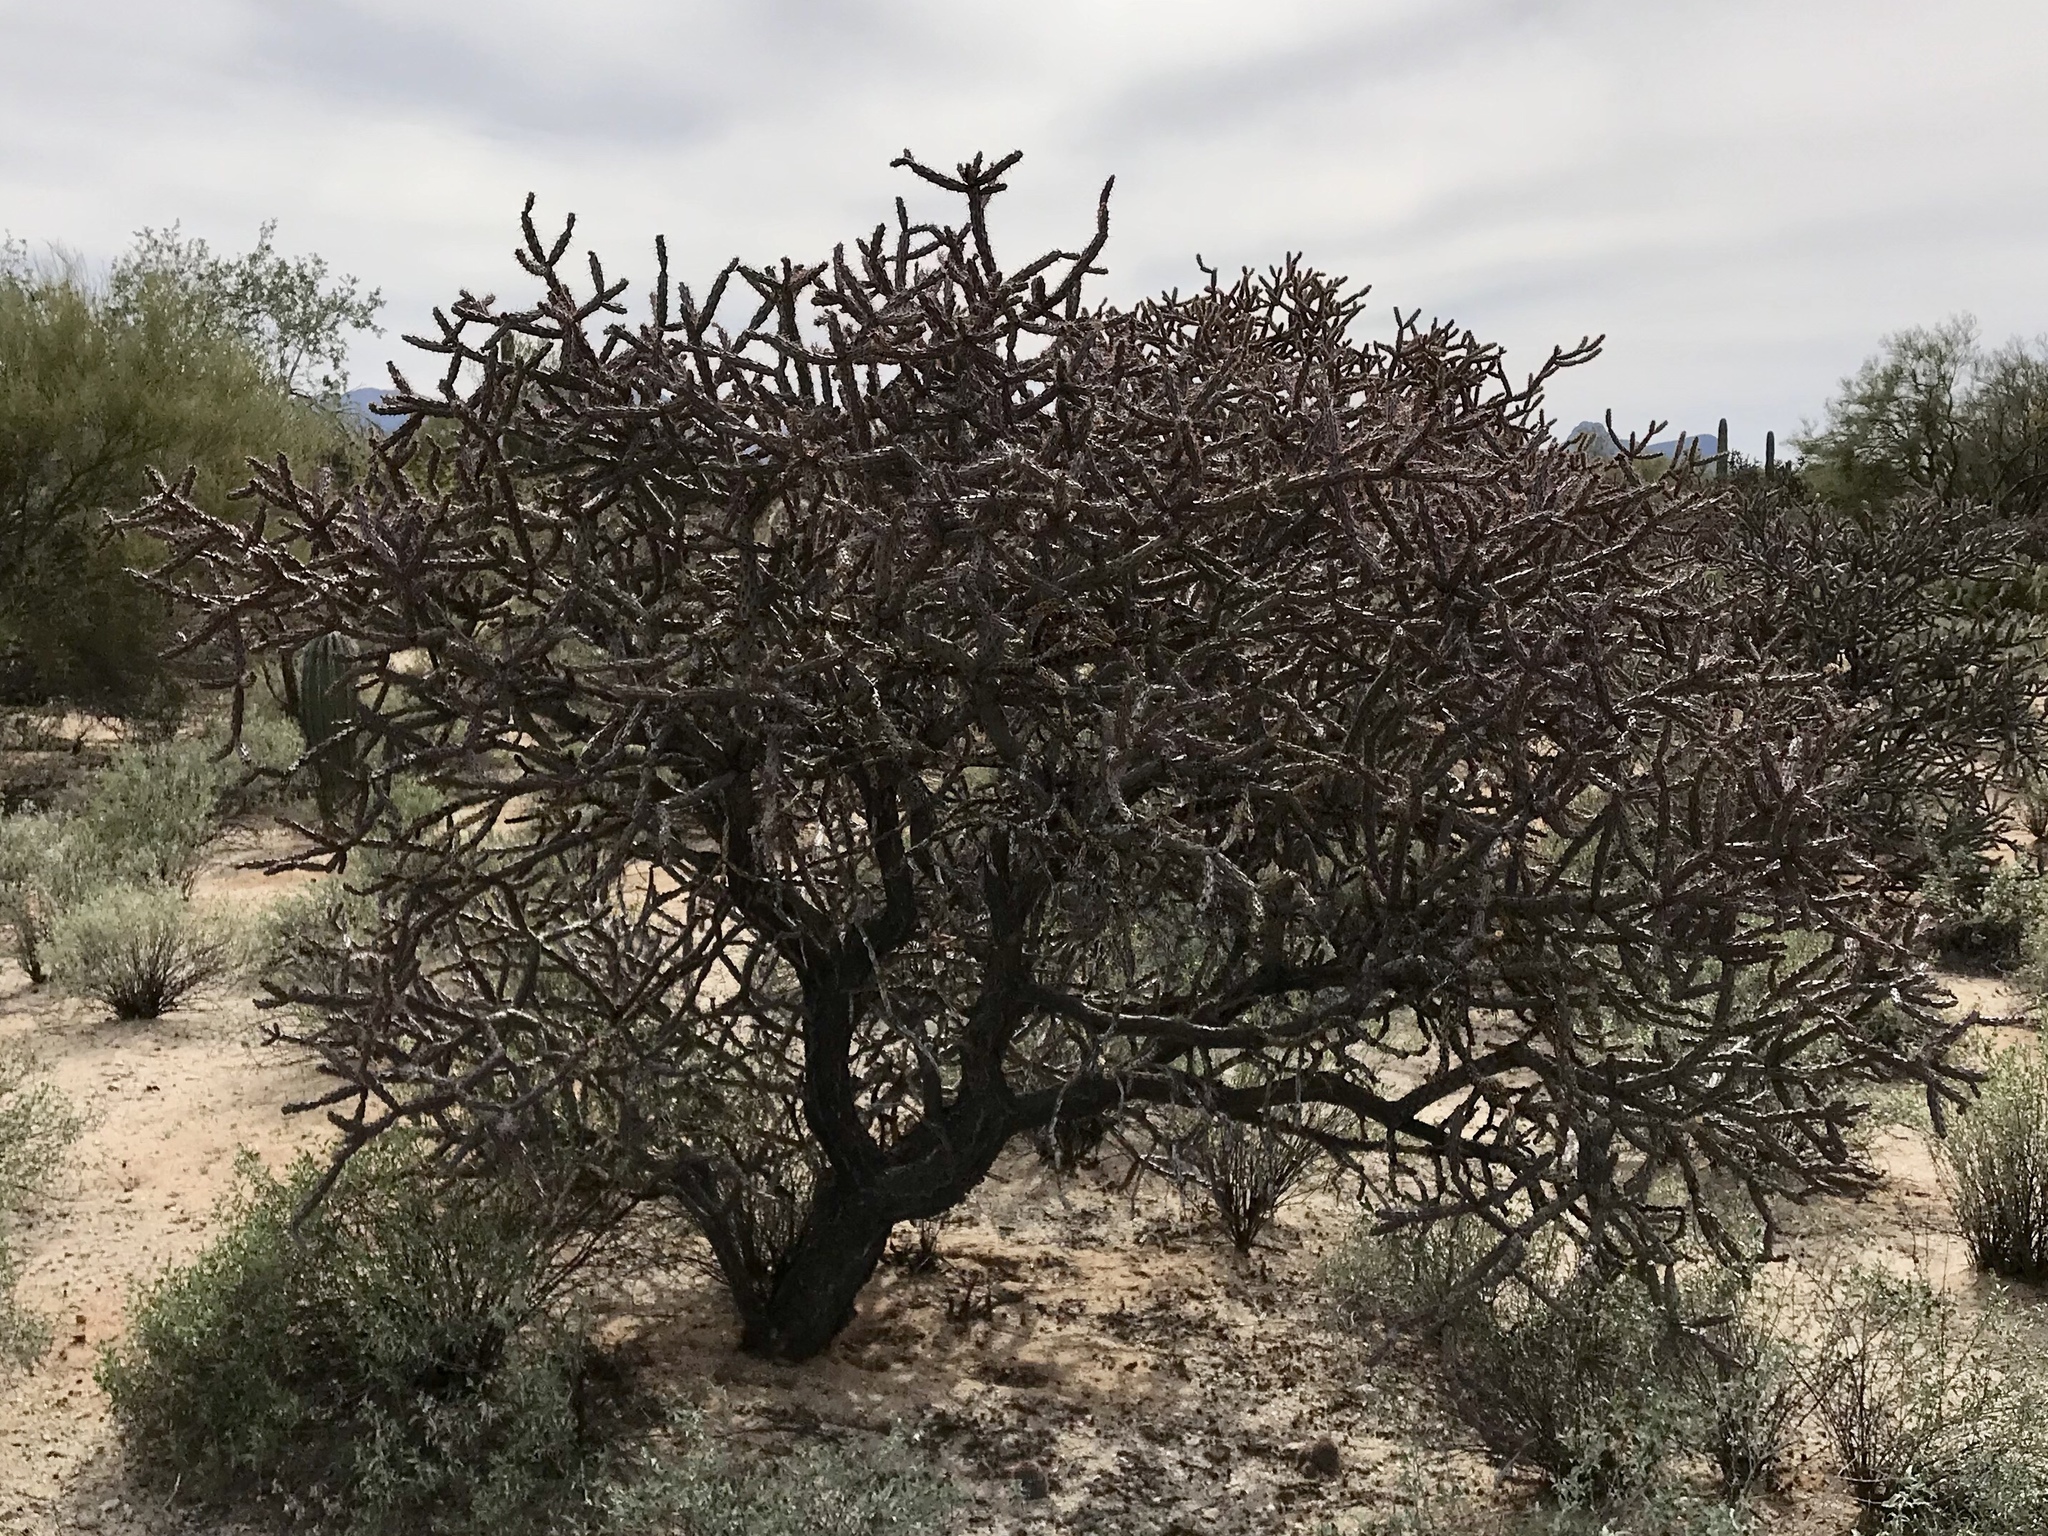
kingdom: Plantae
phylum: Tracheophyta
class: Magnoliopsida
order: Caryophyllales
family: Cactaceae
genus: Cylindropuntia
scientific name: Cylindropuntia thurberi
